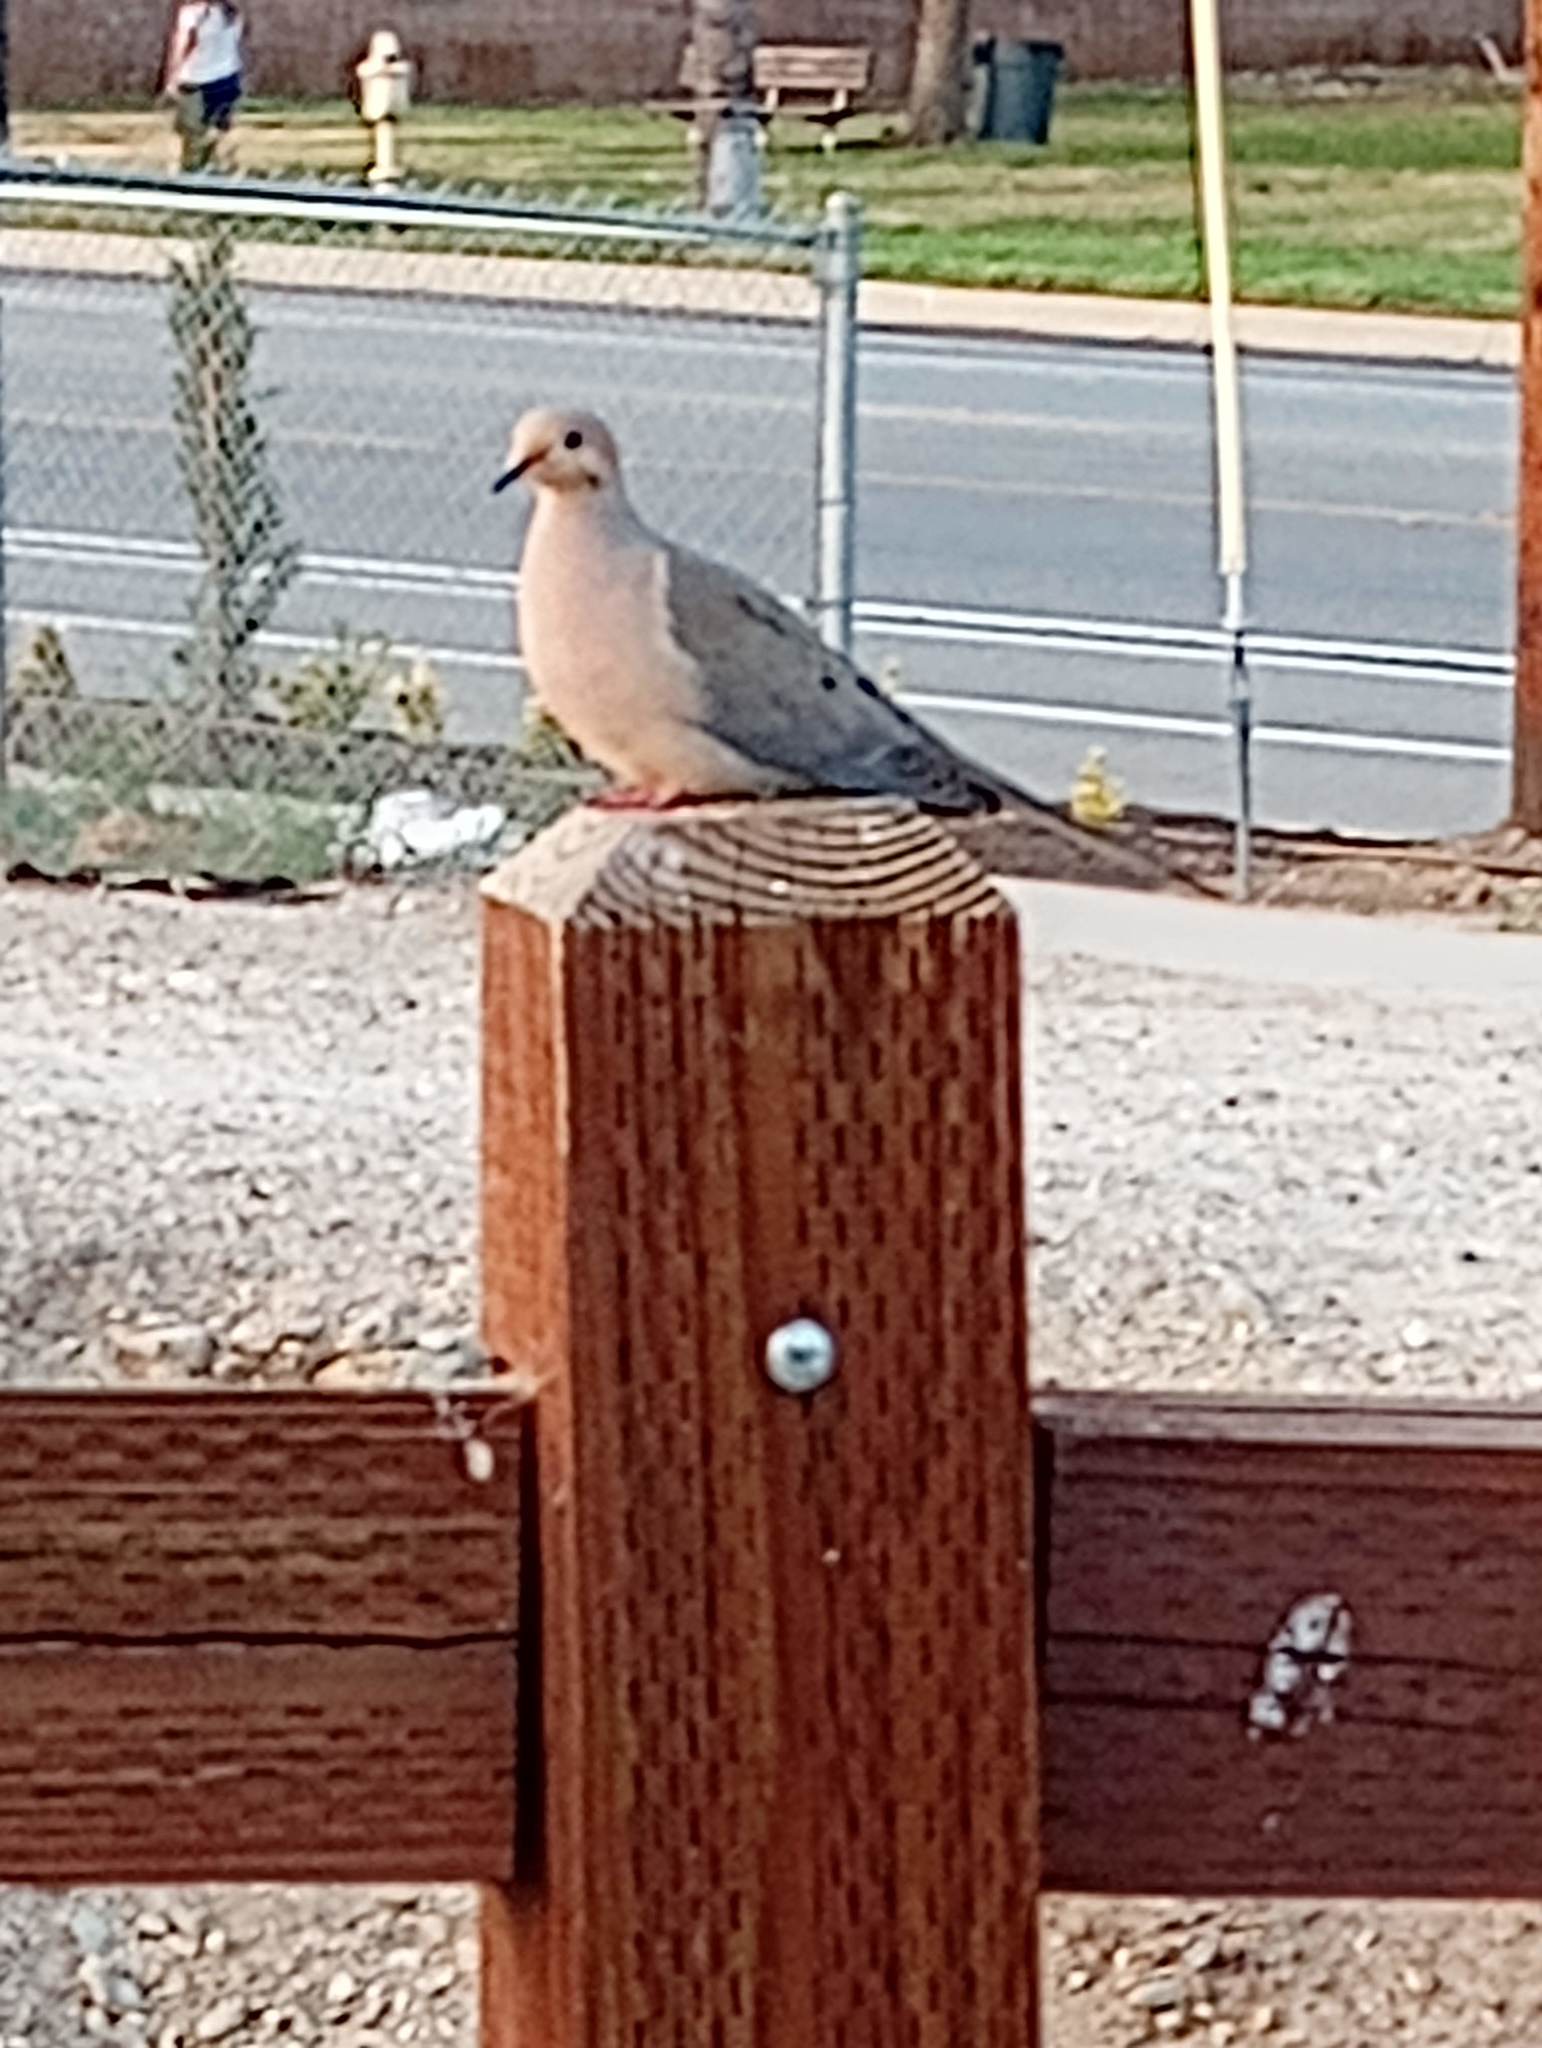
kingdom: Animalia
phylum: Chordata
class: Aves
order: Columbiformes
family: Columbidae
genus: Zenaida
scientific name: Zenaida macroura
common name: Mourning dove
